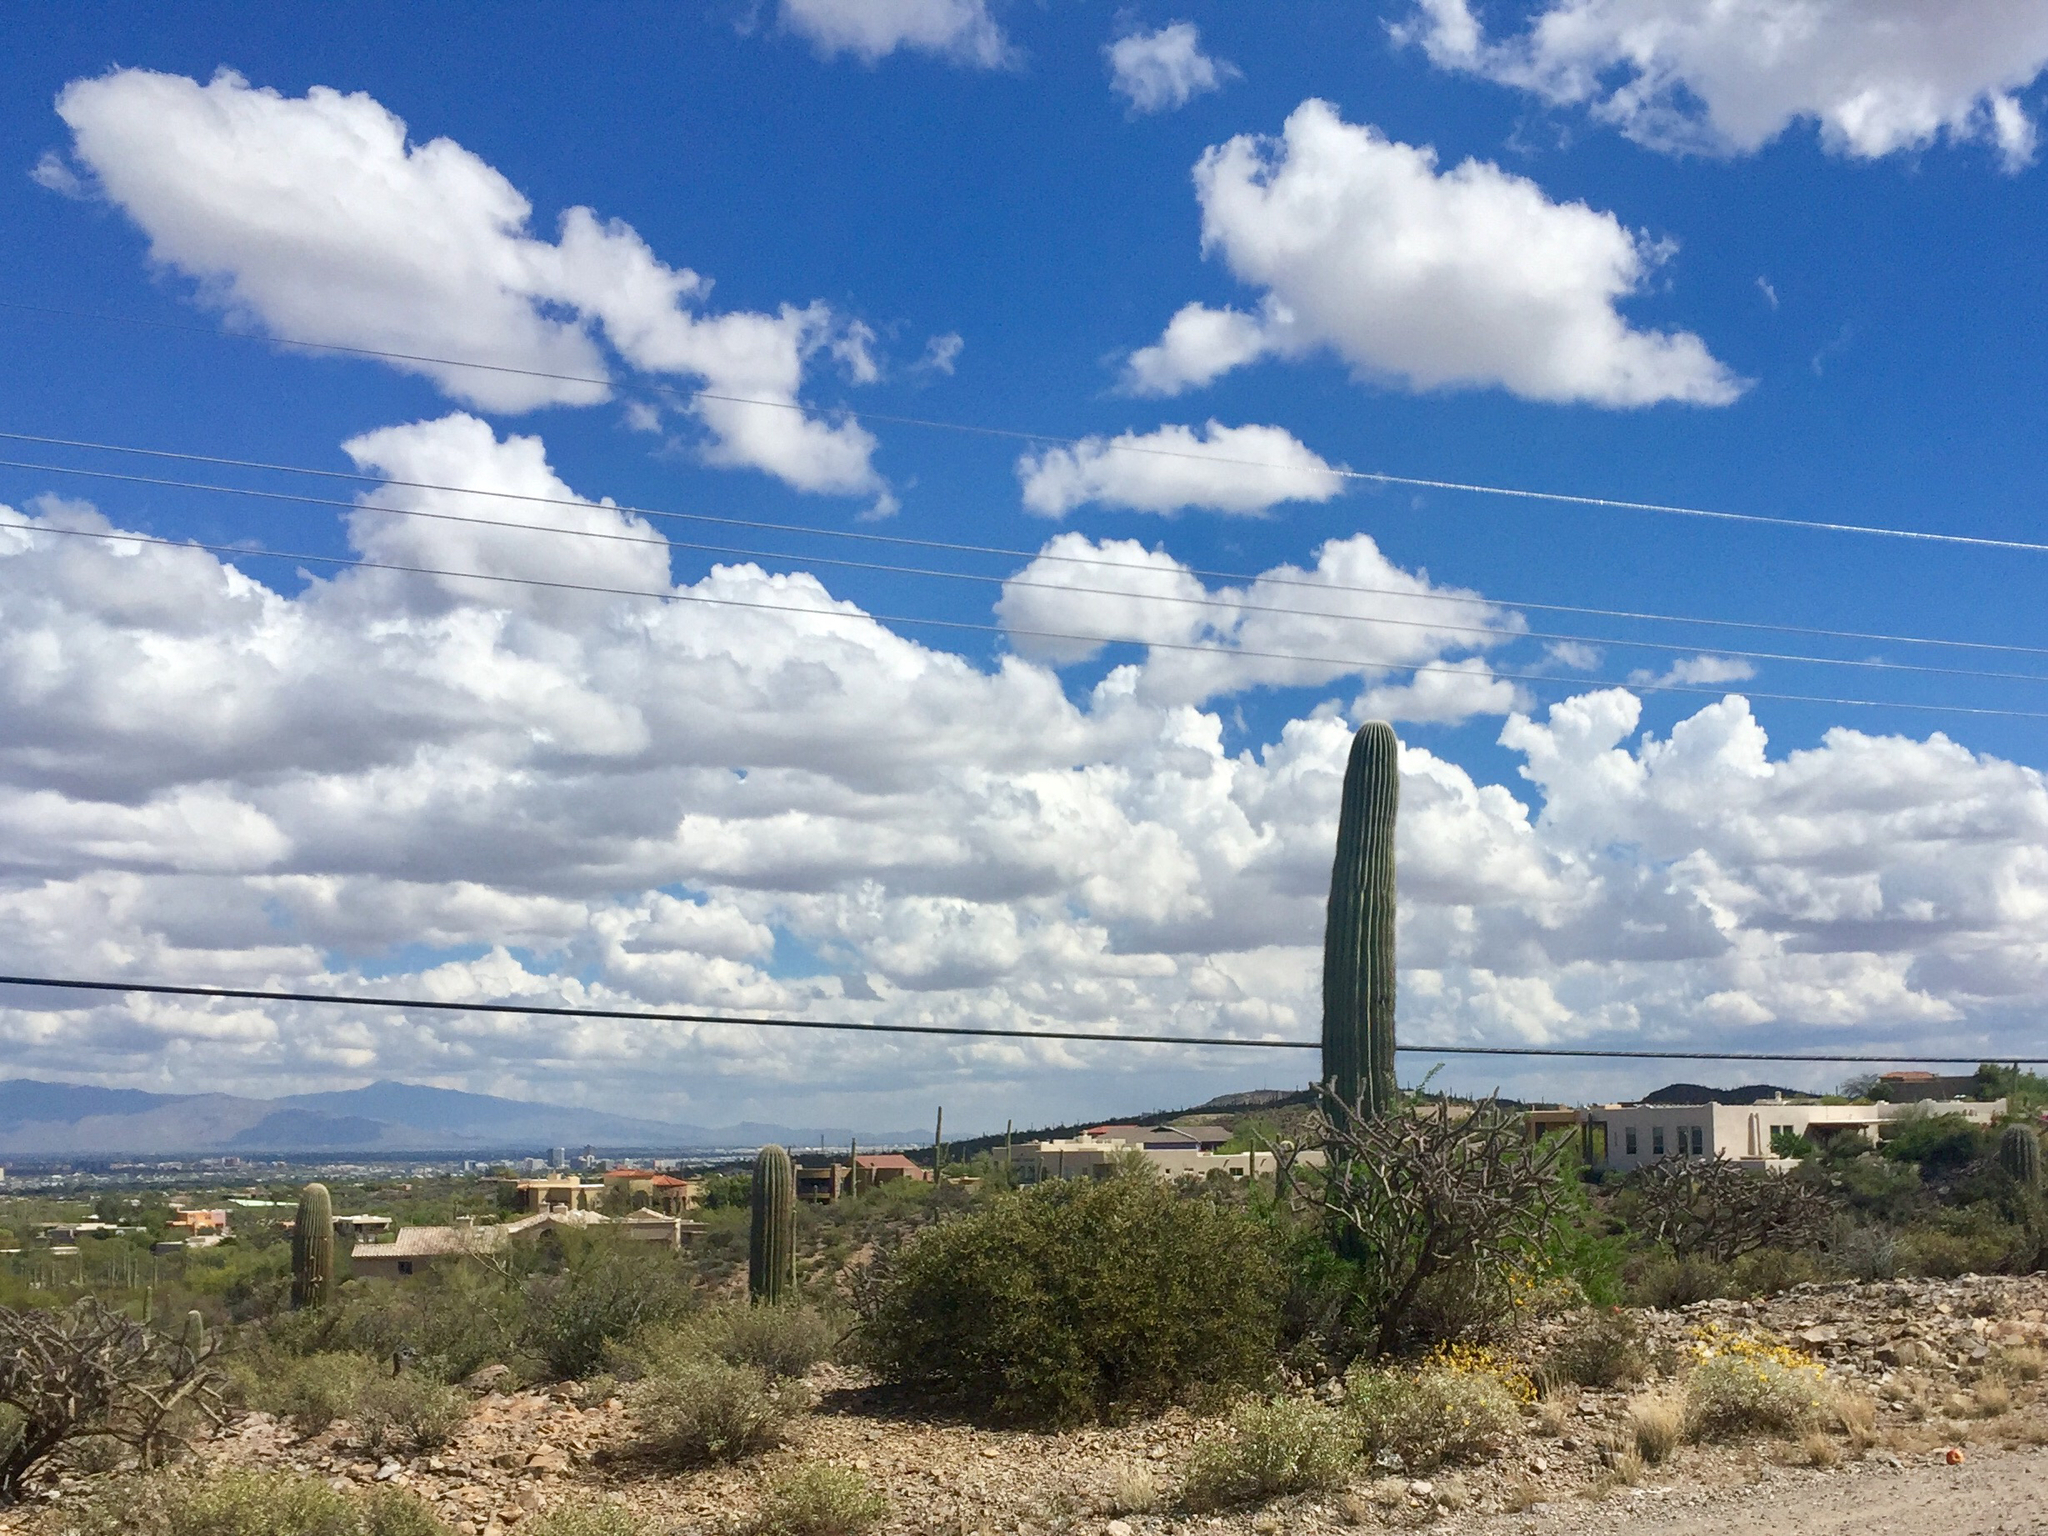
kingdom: Plantae
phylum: Tracheophyta
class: Magnoliopsida
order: Caryophyllales
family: Cactaceae
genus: Carnegiea
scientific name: Carnegiea gigantea
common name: Saguaro
